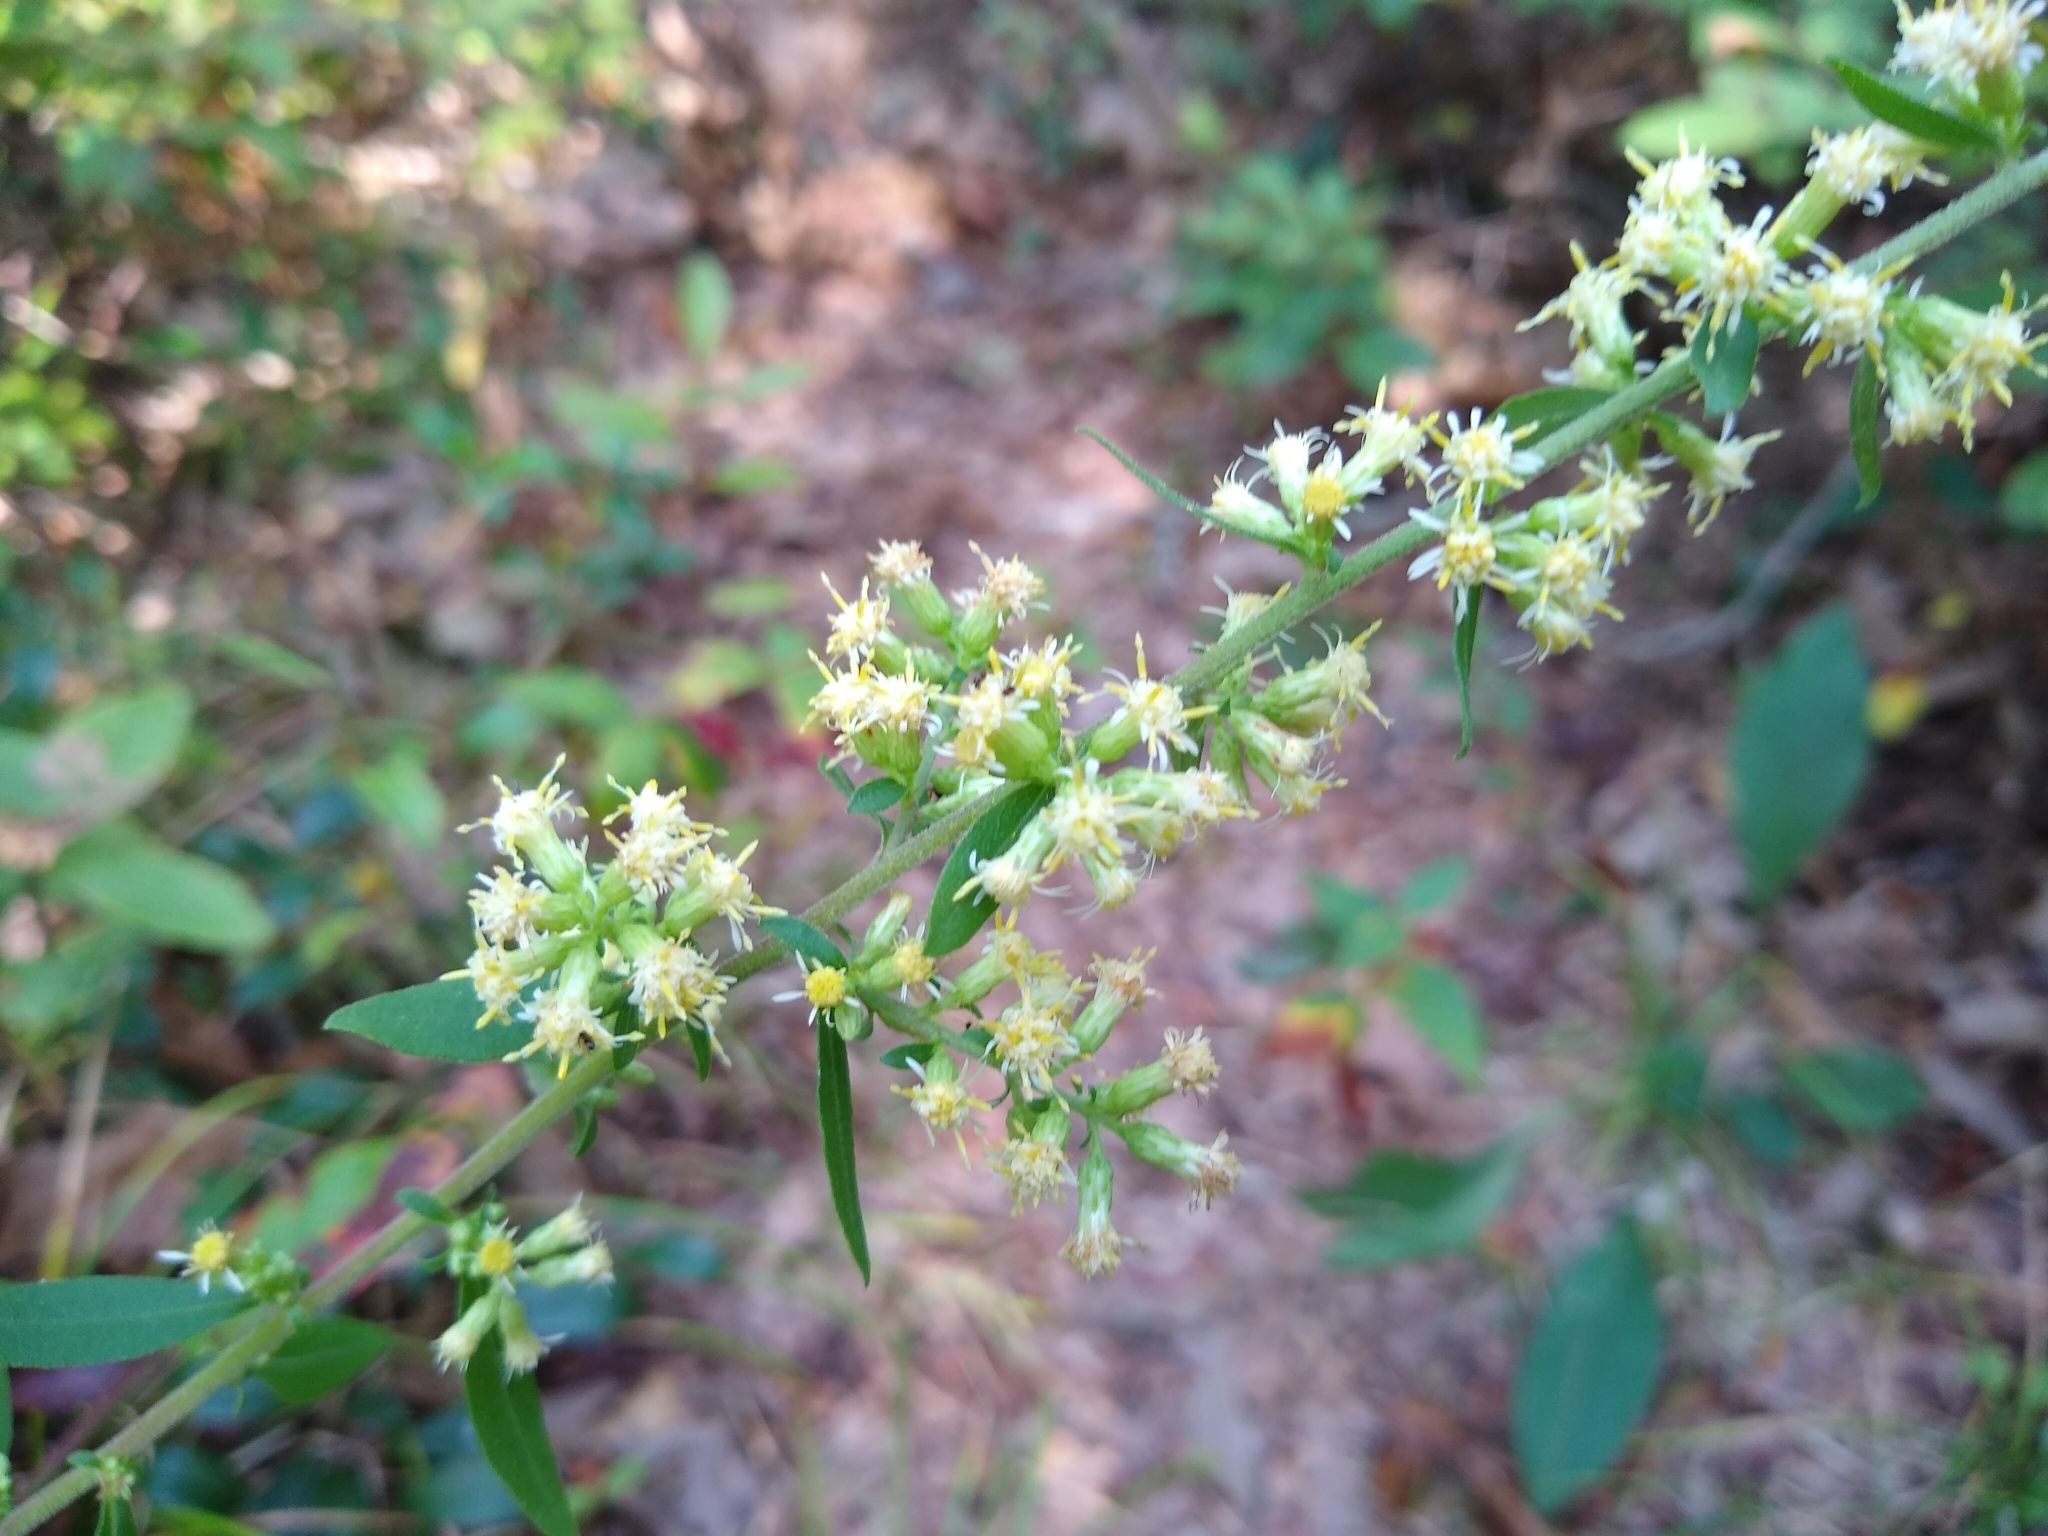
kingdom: Plantae
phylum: Tracheophyta
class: Magnoliopsida
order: Asterales
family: Asteraceae
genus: Solidago
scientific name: Solidago bicolor
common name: Silverrod
